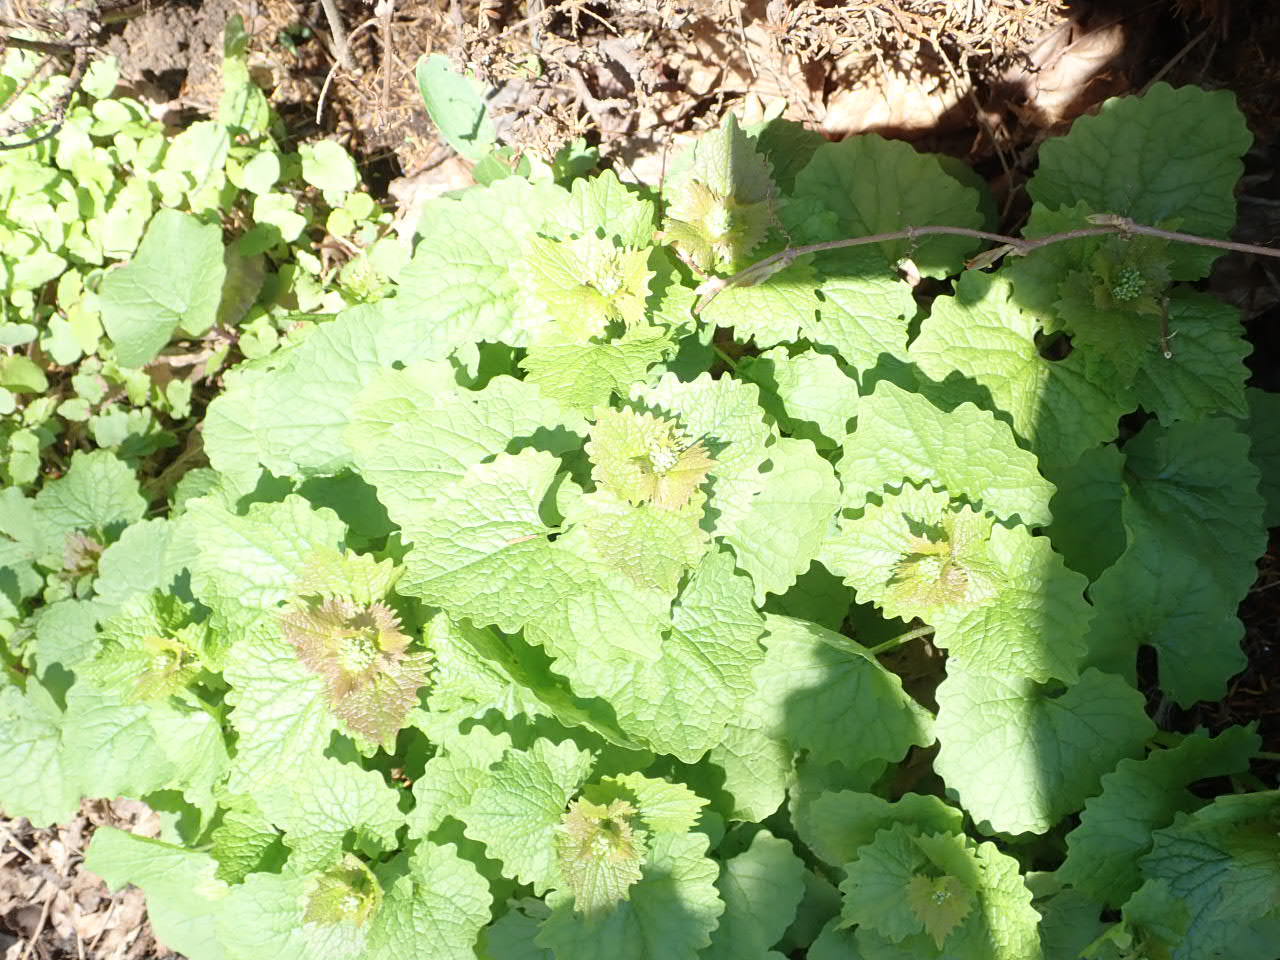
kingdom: Plantae
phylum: Tracheophyta
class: Magnoliopsida
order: Brassicales
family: Brassicaceae
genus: Alliaria
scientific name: Alliaria petiolata
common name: Garlic mustard
